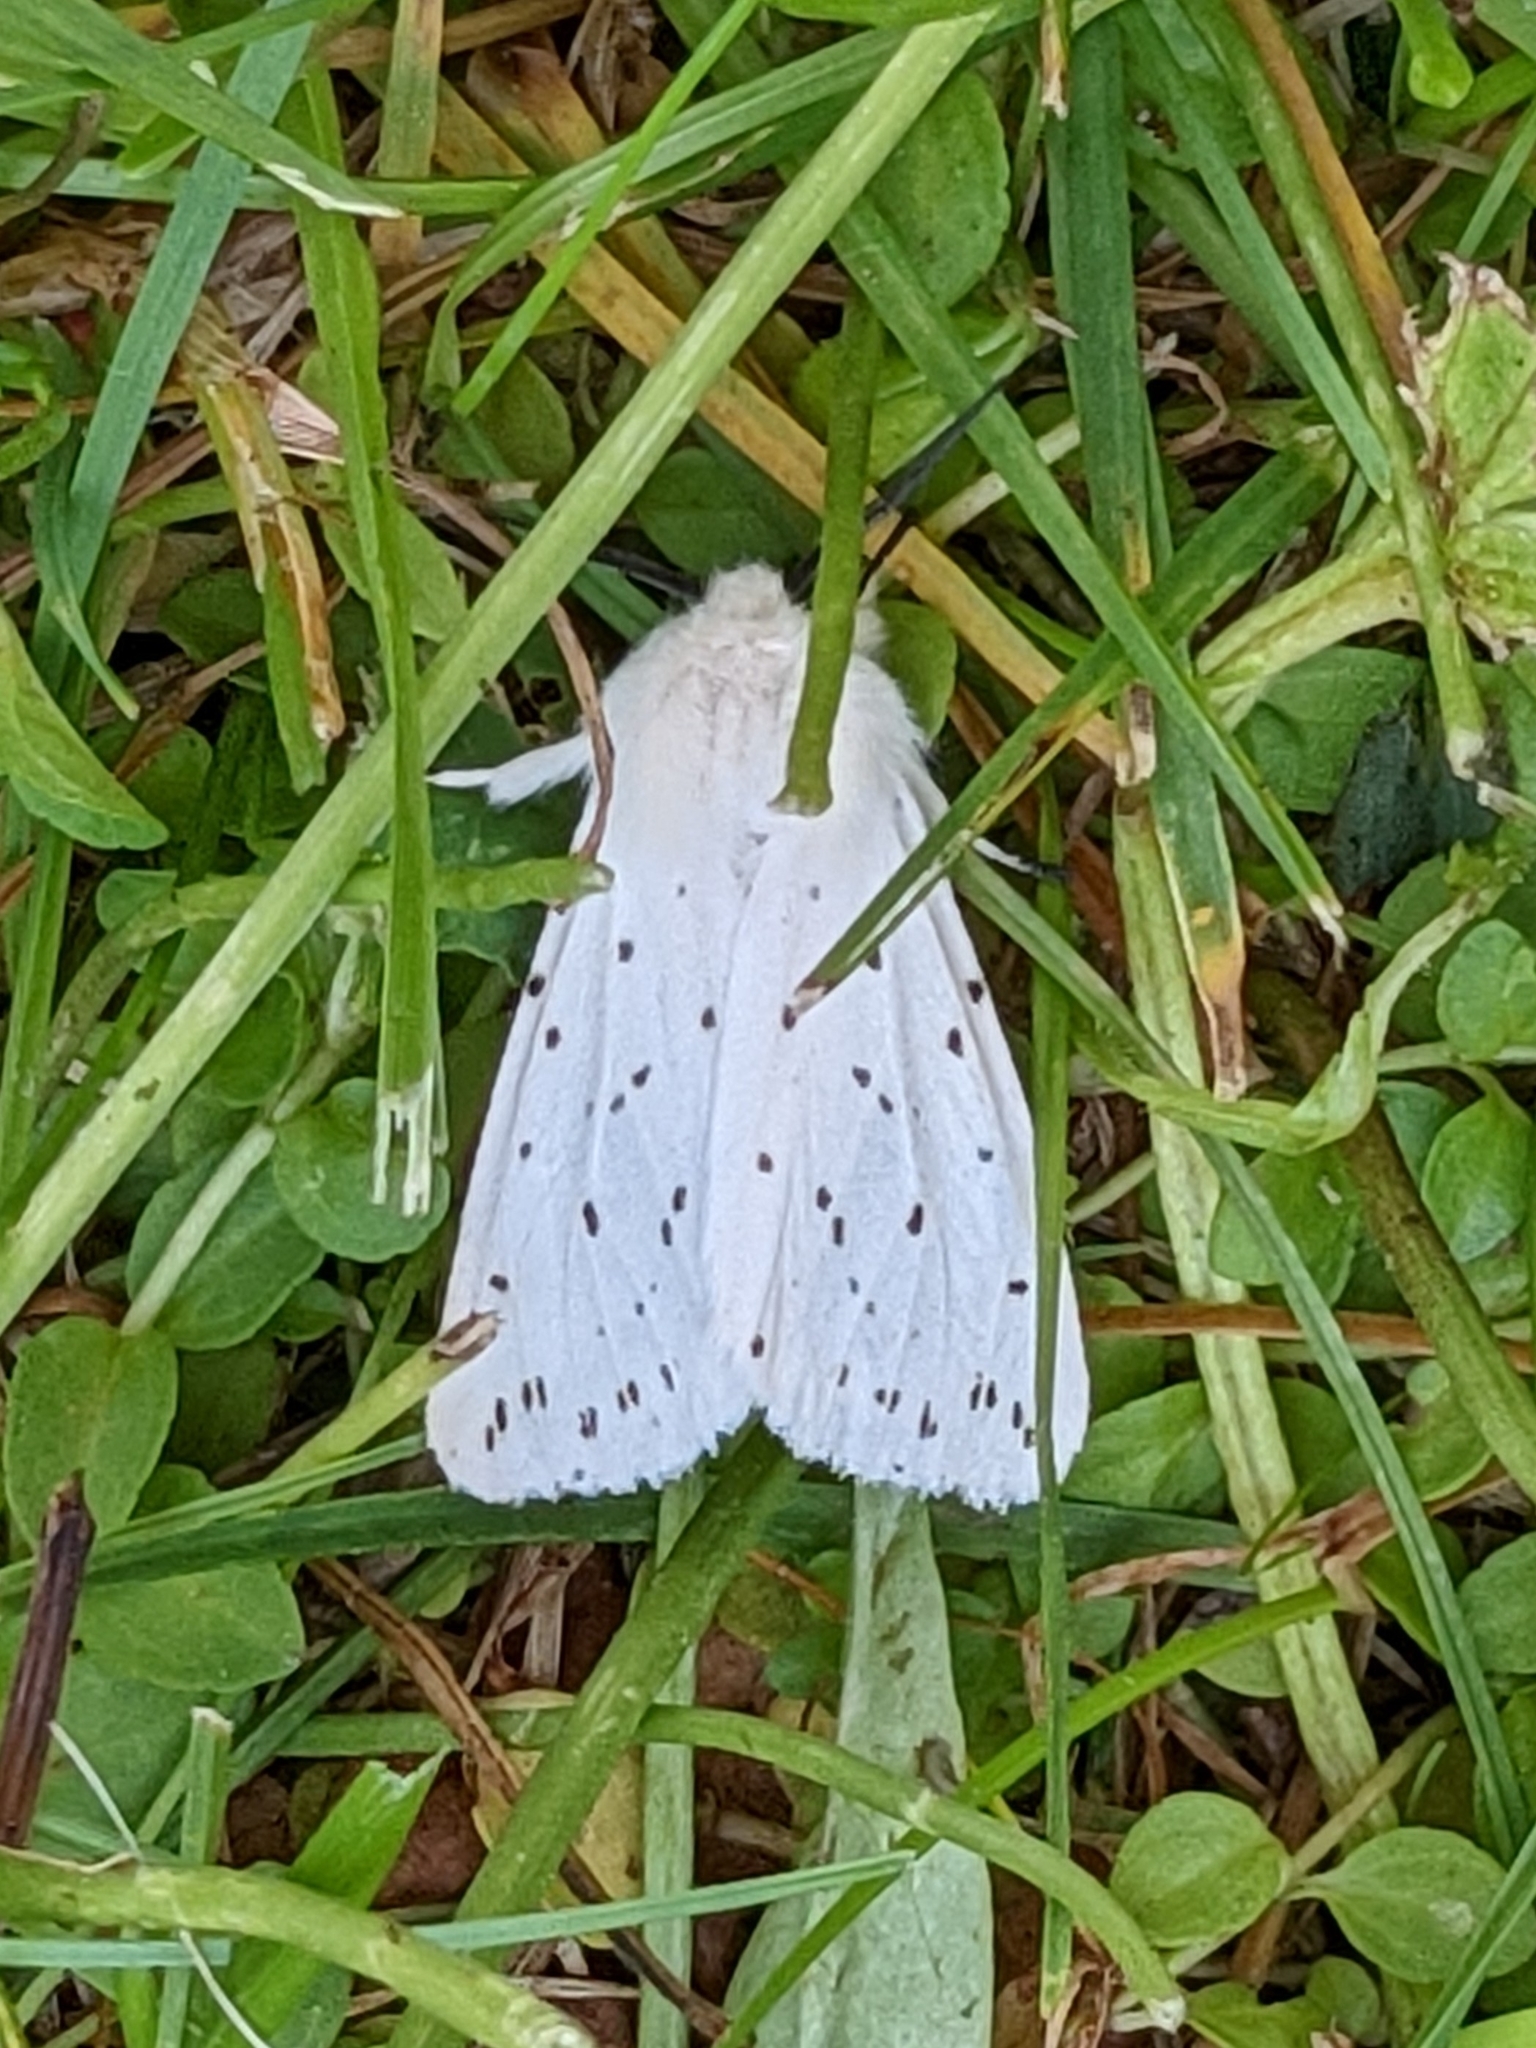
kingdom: Animalia
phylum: Arthropoda
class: Insecta
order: Lepidoptera
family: Erebidae
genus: Spilosoma
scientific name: Spilosoma lubricipeda
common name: White ermine
